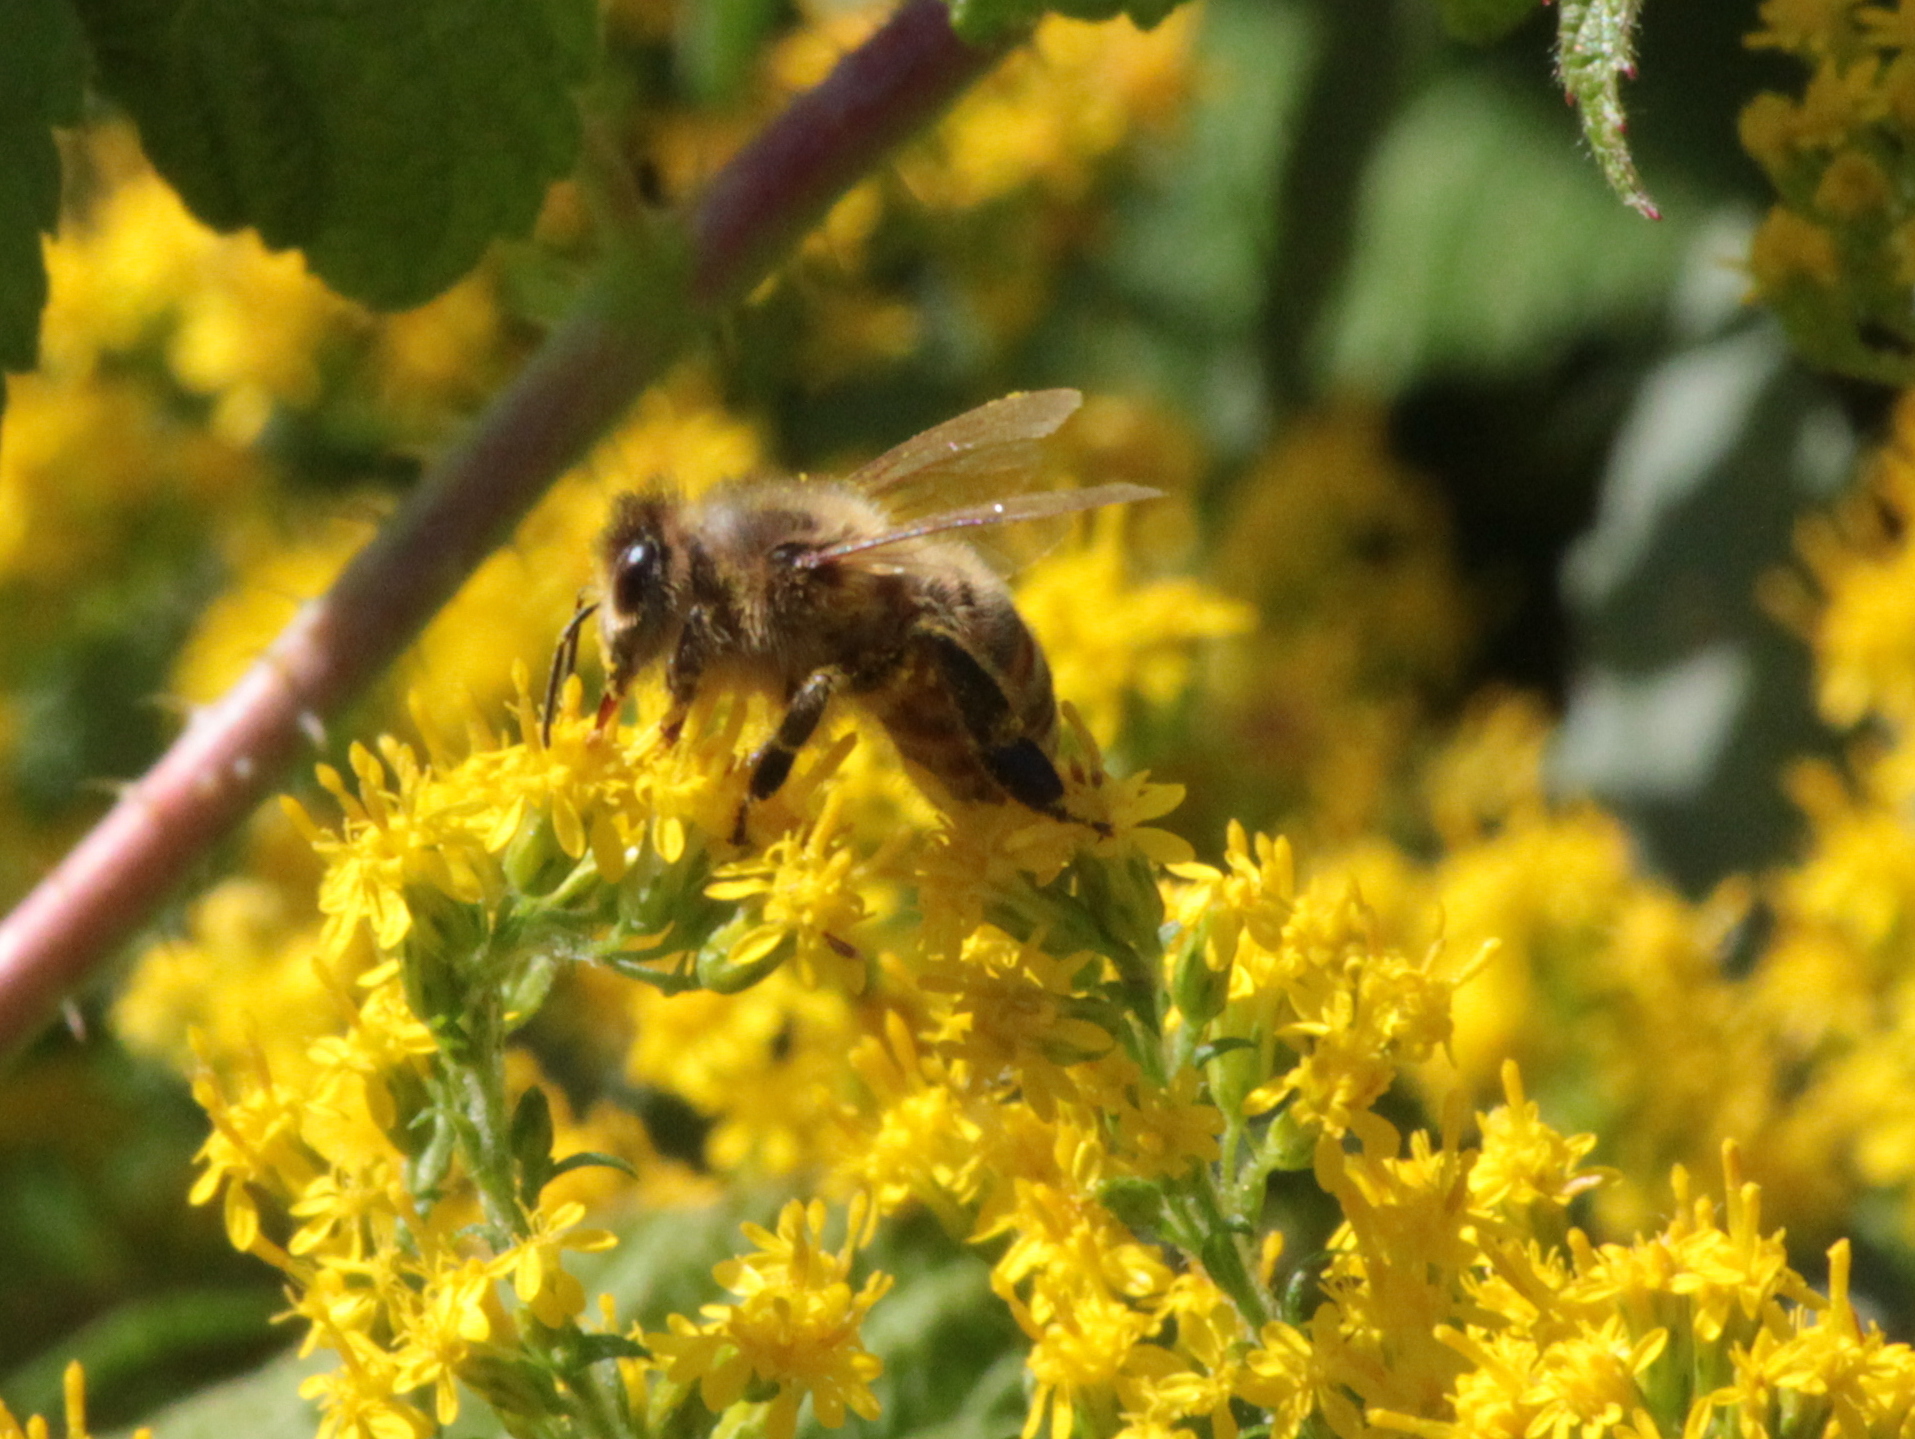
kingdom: Animalia
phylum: Arthropoda
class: Insecta
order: Hymenoptera
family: Apidae
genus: Apis
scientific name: Apis mellifera
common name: Honey bee
